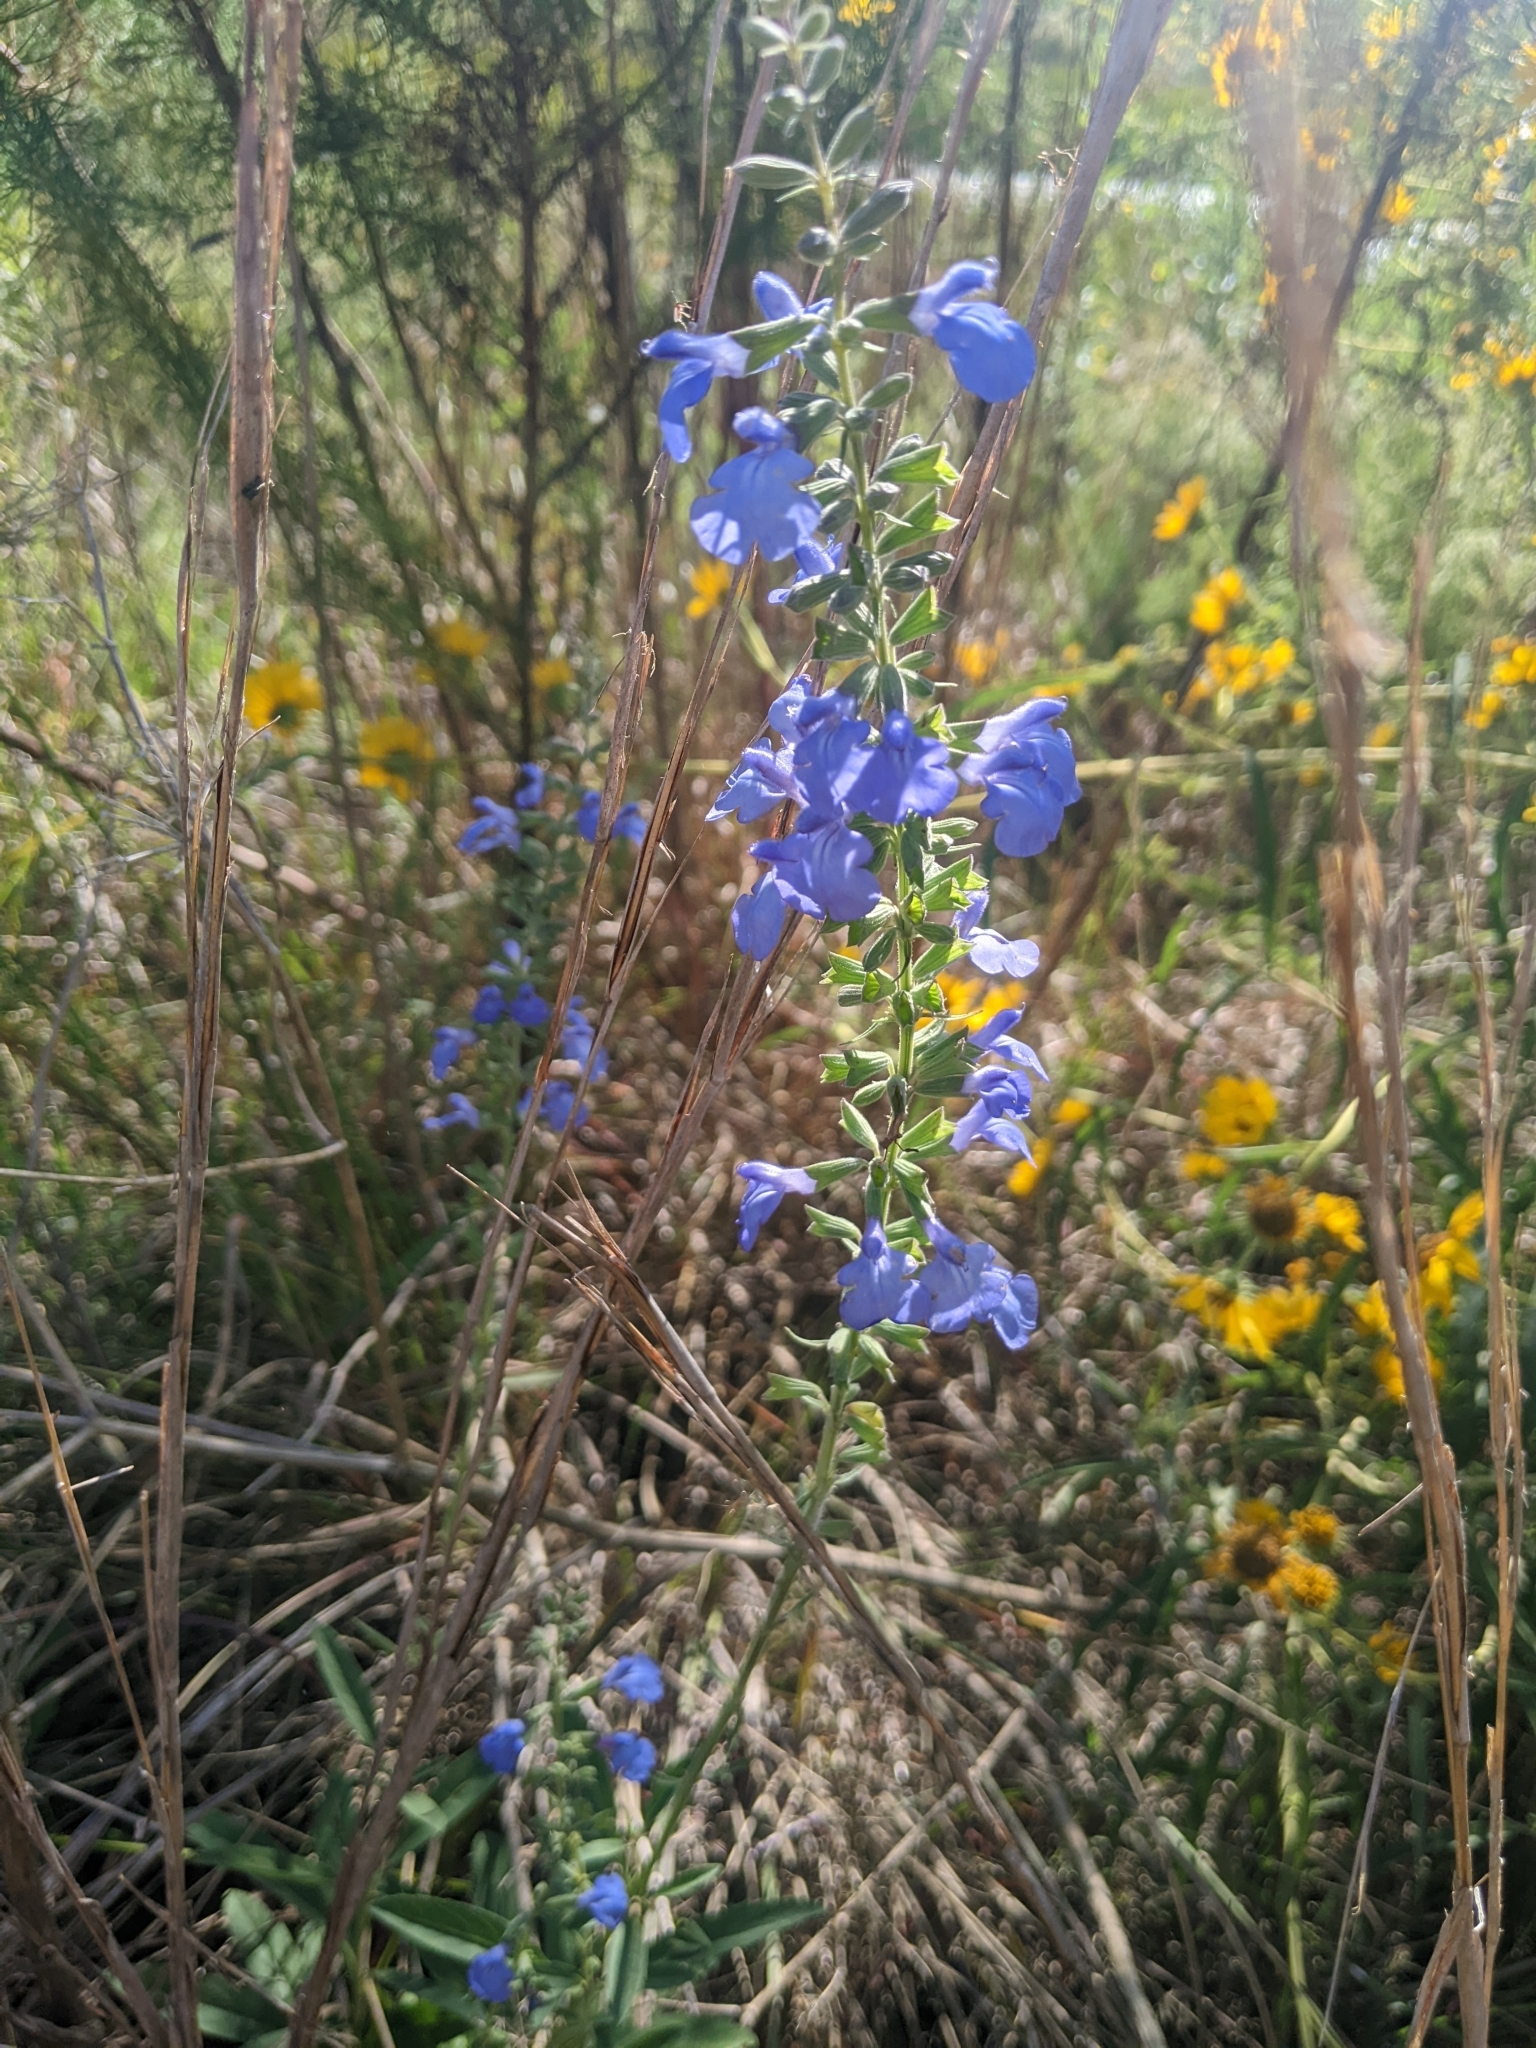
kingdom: Plantae
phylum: Tracheophyta
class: Magnoliopsida
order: Lamiales
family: Lamiaceae
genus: Salvia
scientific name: Salvia azurea
